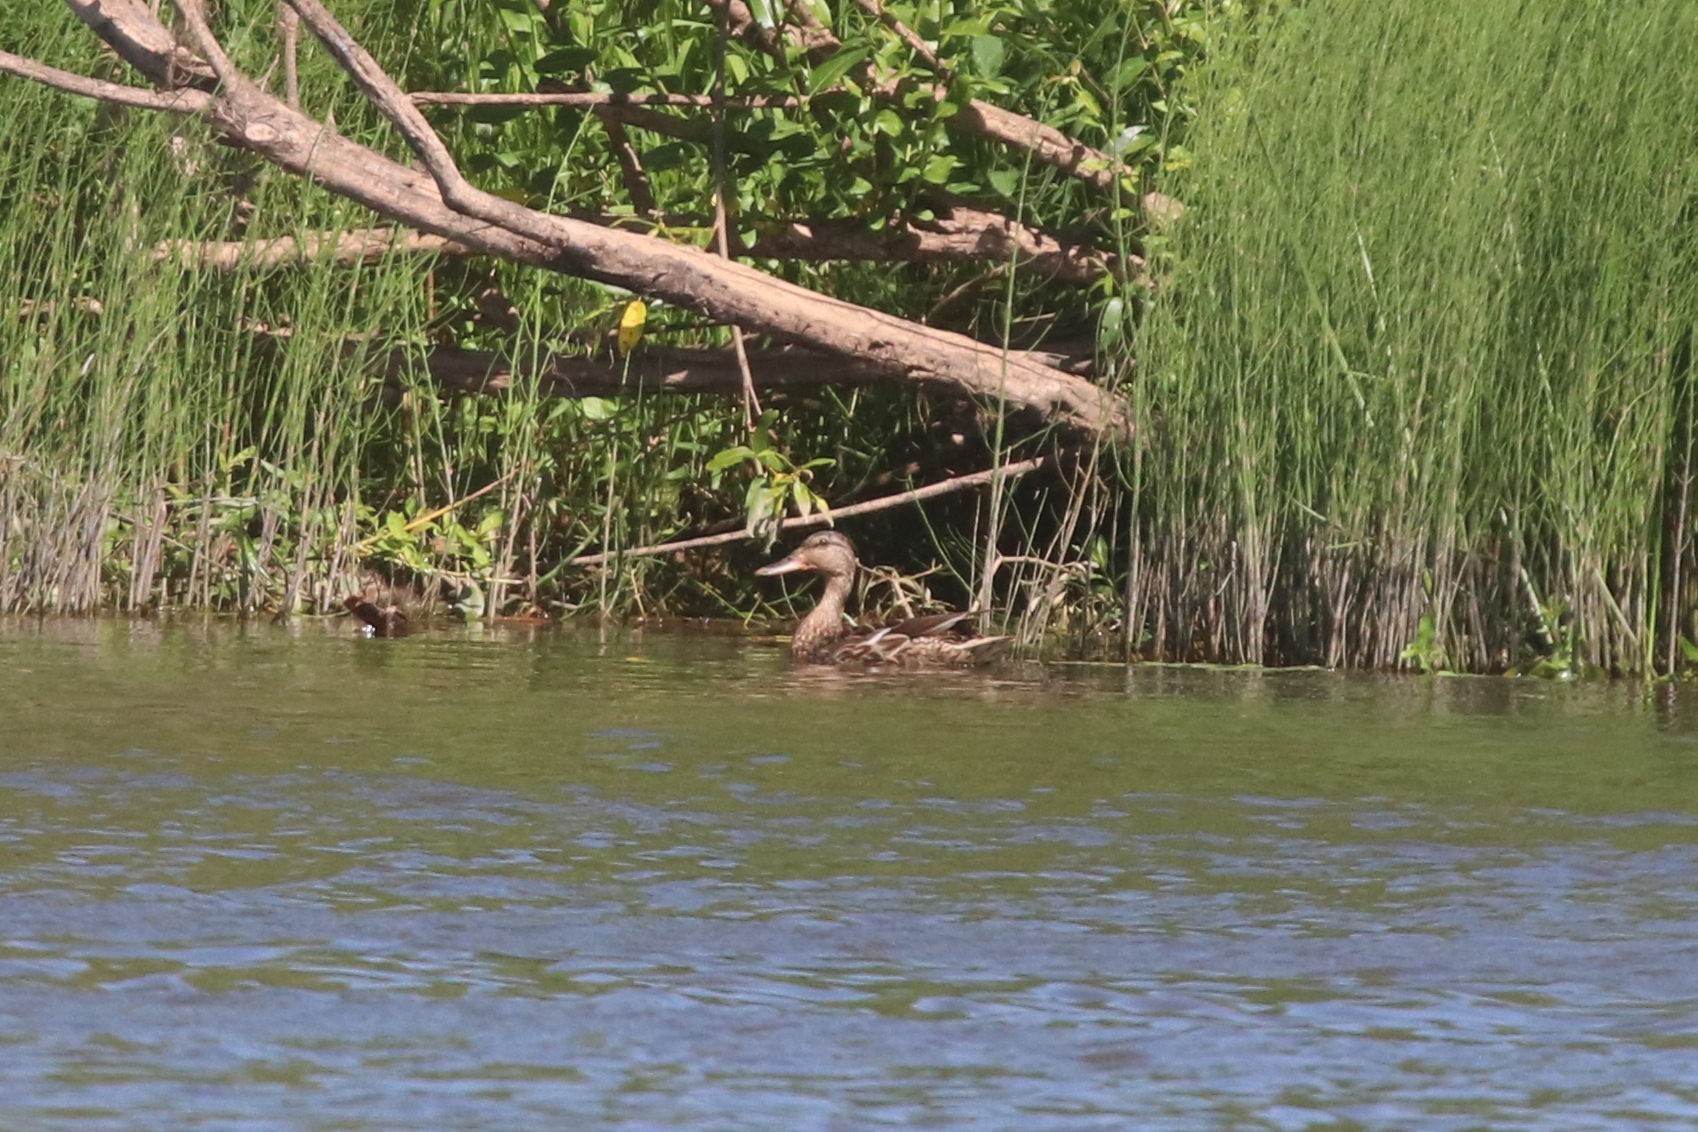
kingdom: Animalia
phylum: Chordata
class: Aves
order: Anseriformes
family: Anatidae
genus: Anas
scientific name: Anas platyrhynchos
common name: Mallard
